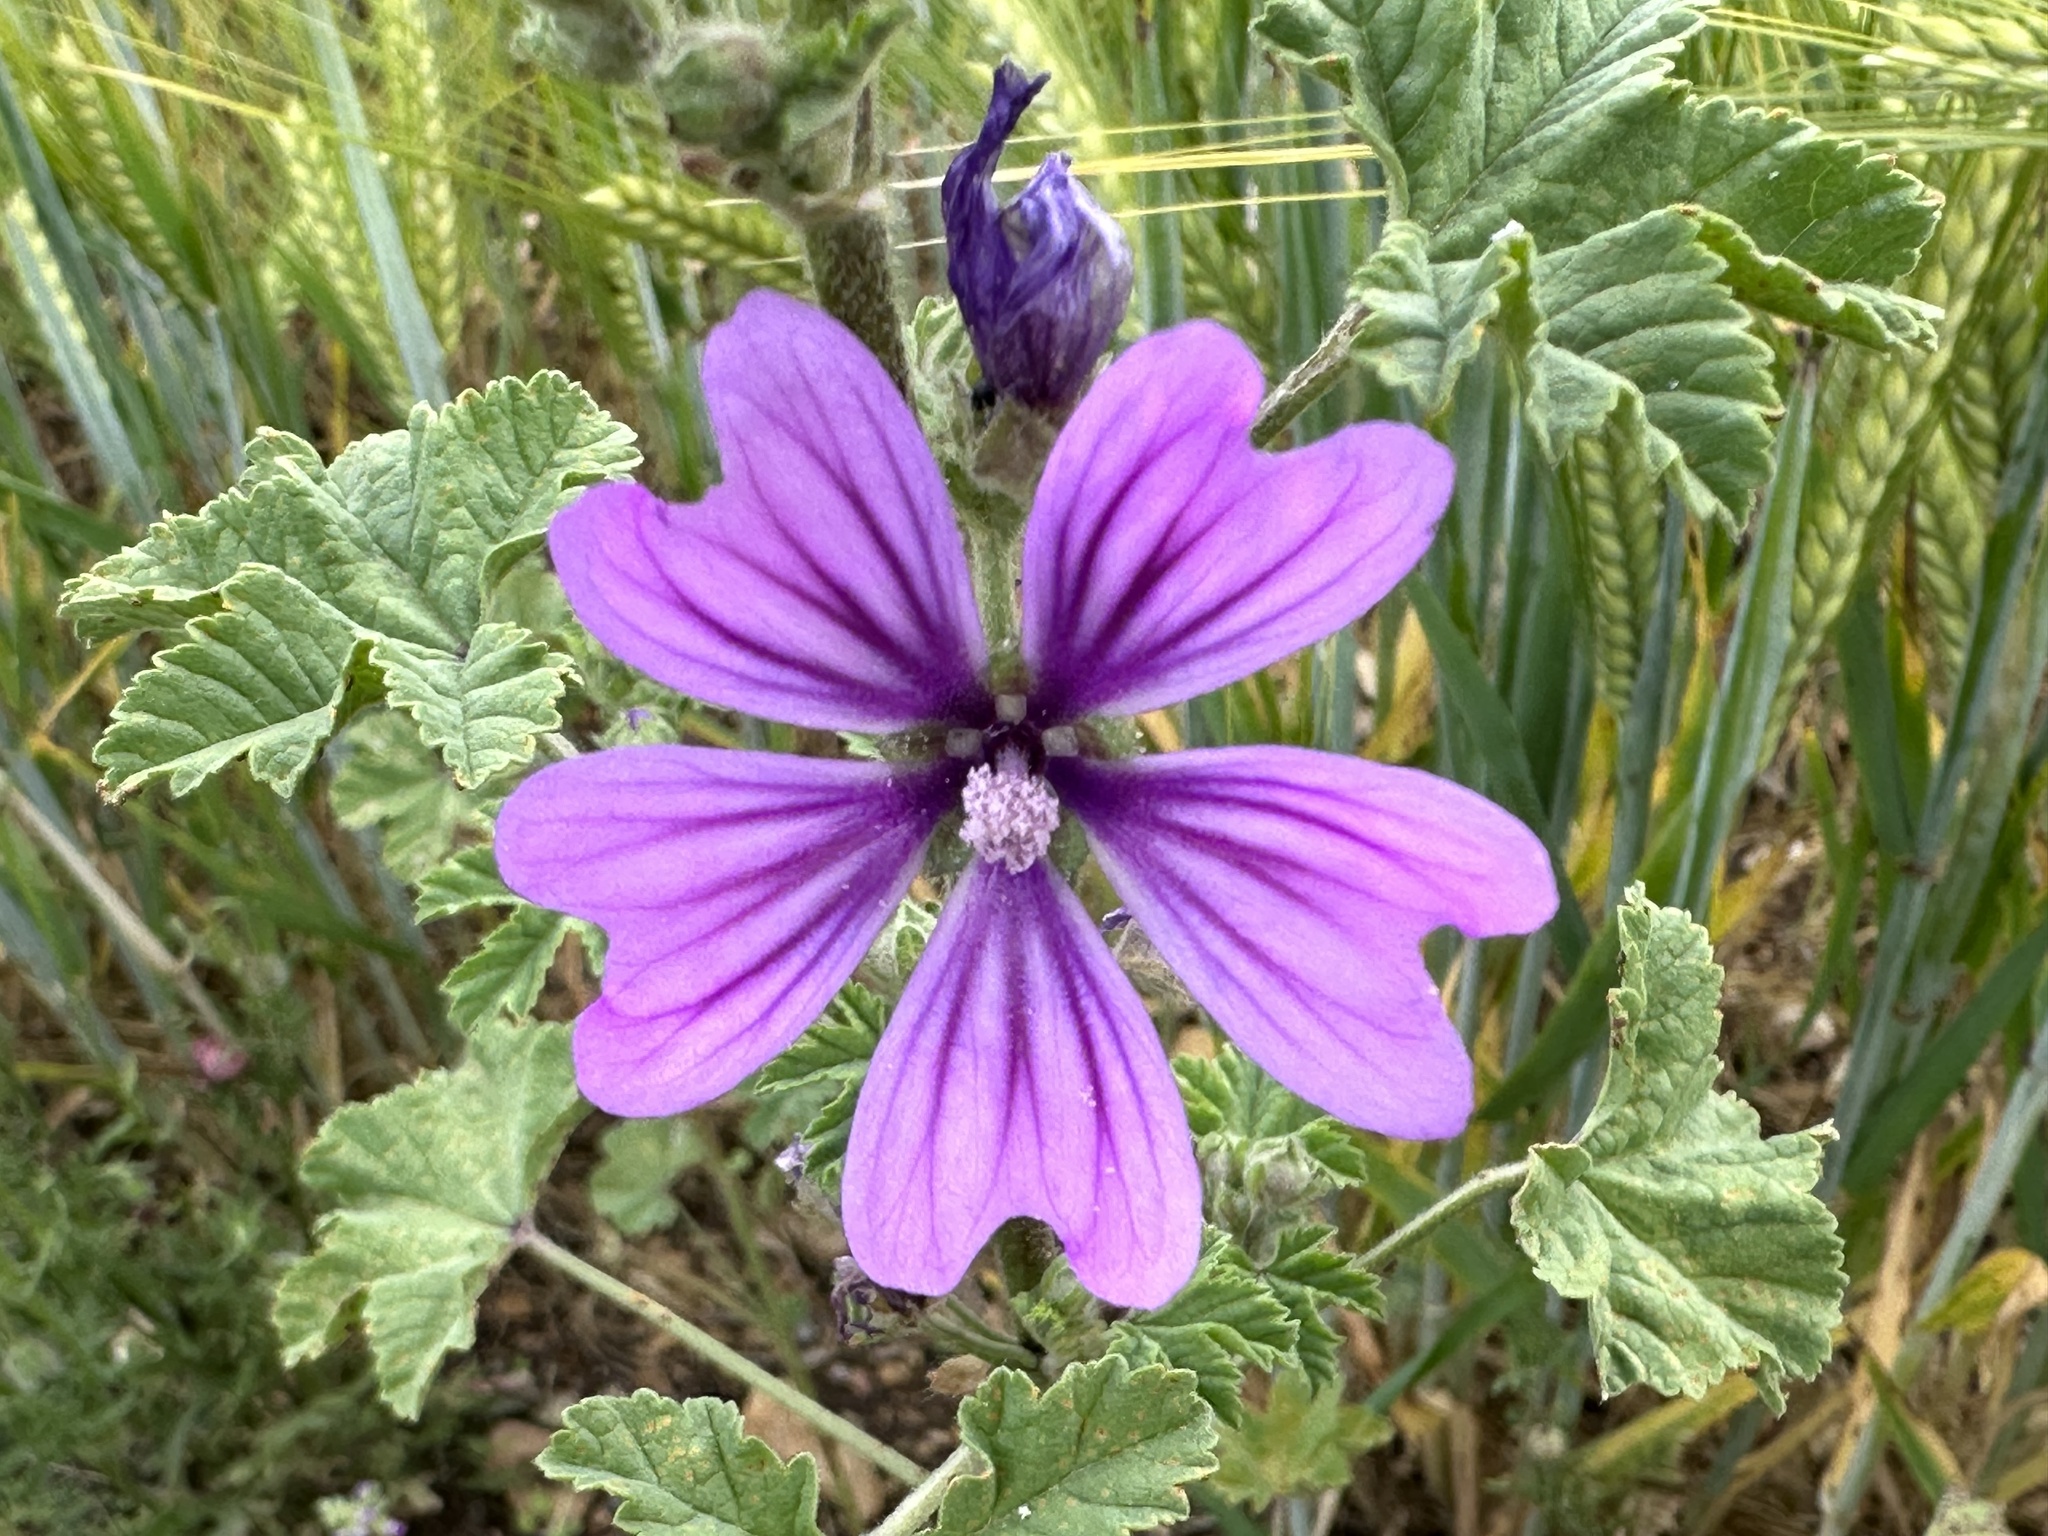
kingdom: Plantae
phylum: Tracheophyta
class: Magnoliopsida
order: Malvales
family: Malvaceae
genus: Malva
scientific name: Malva sylvestris
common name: Common mallow
